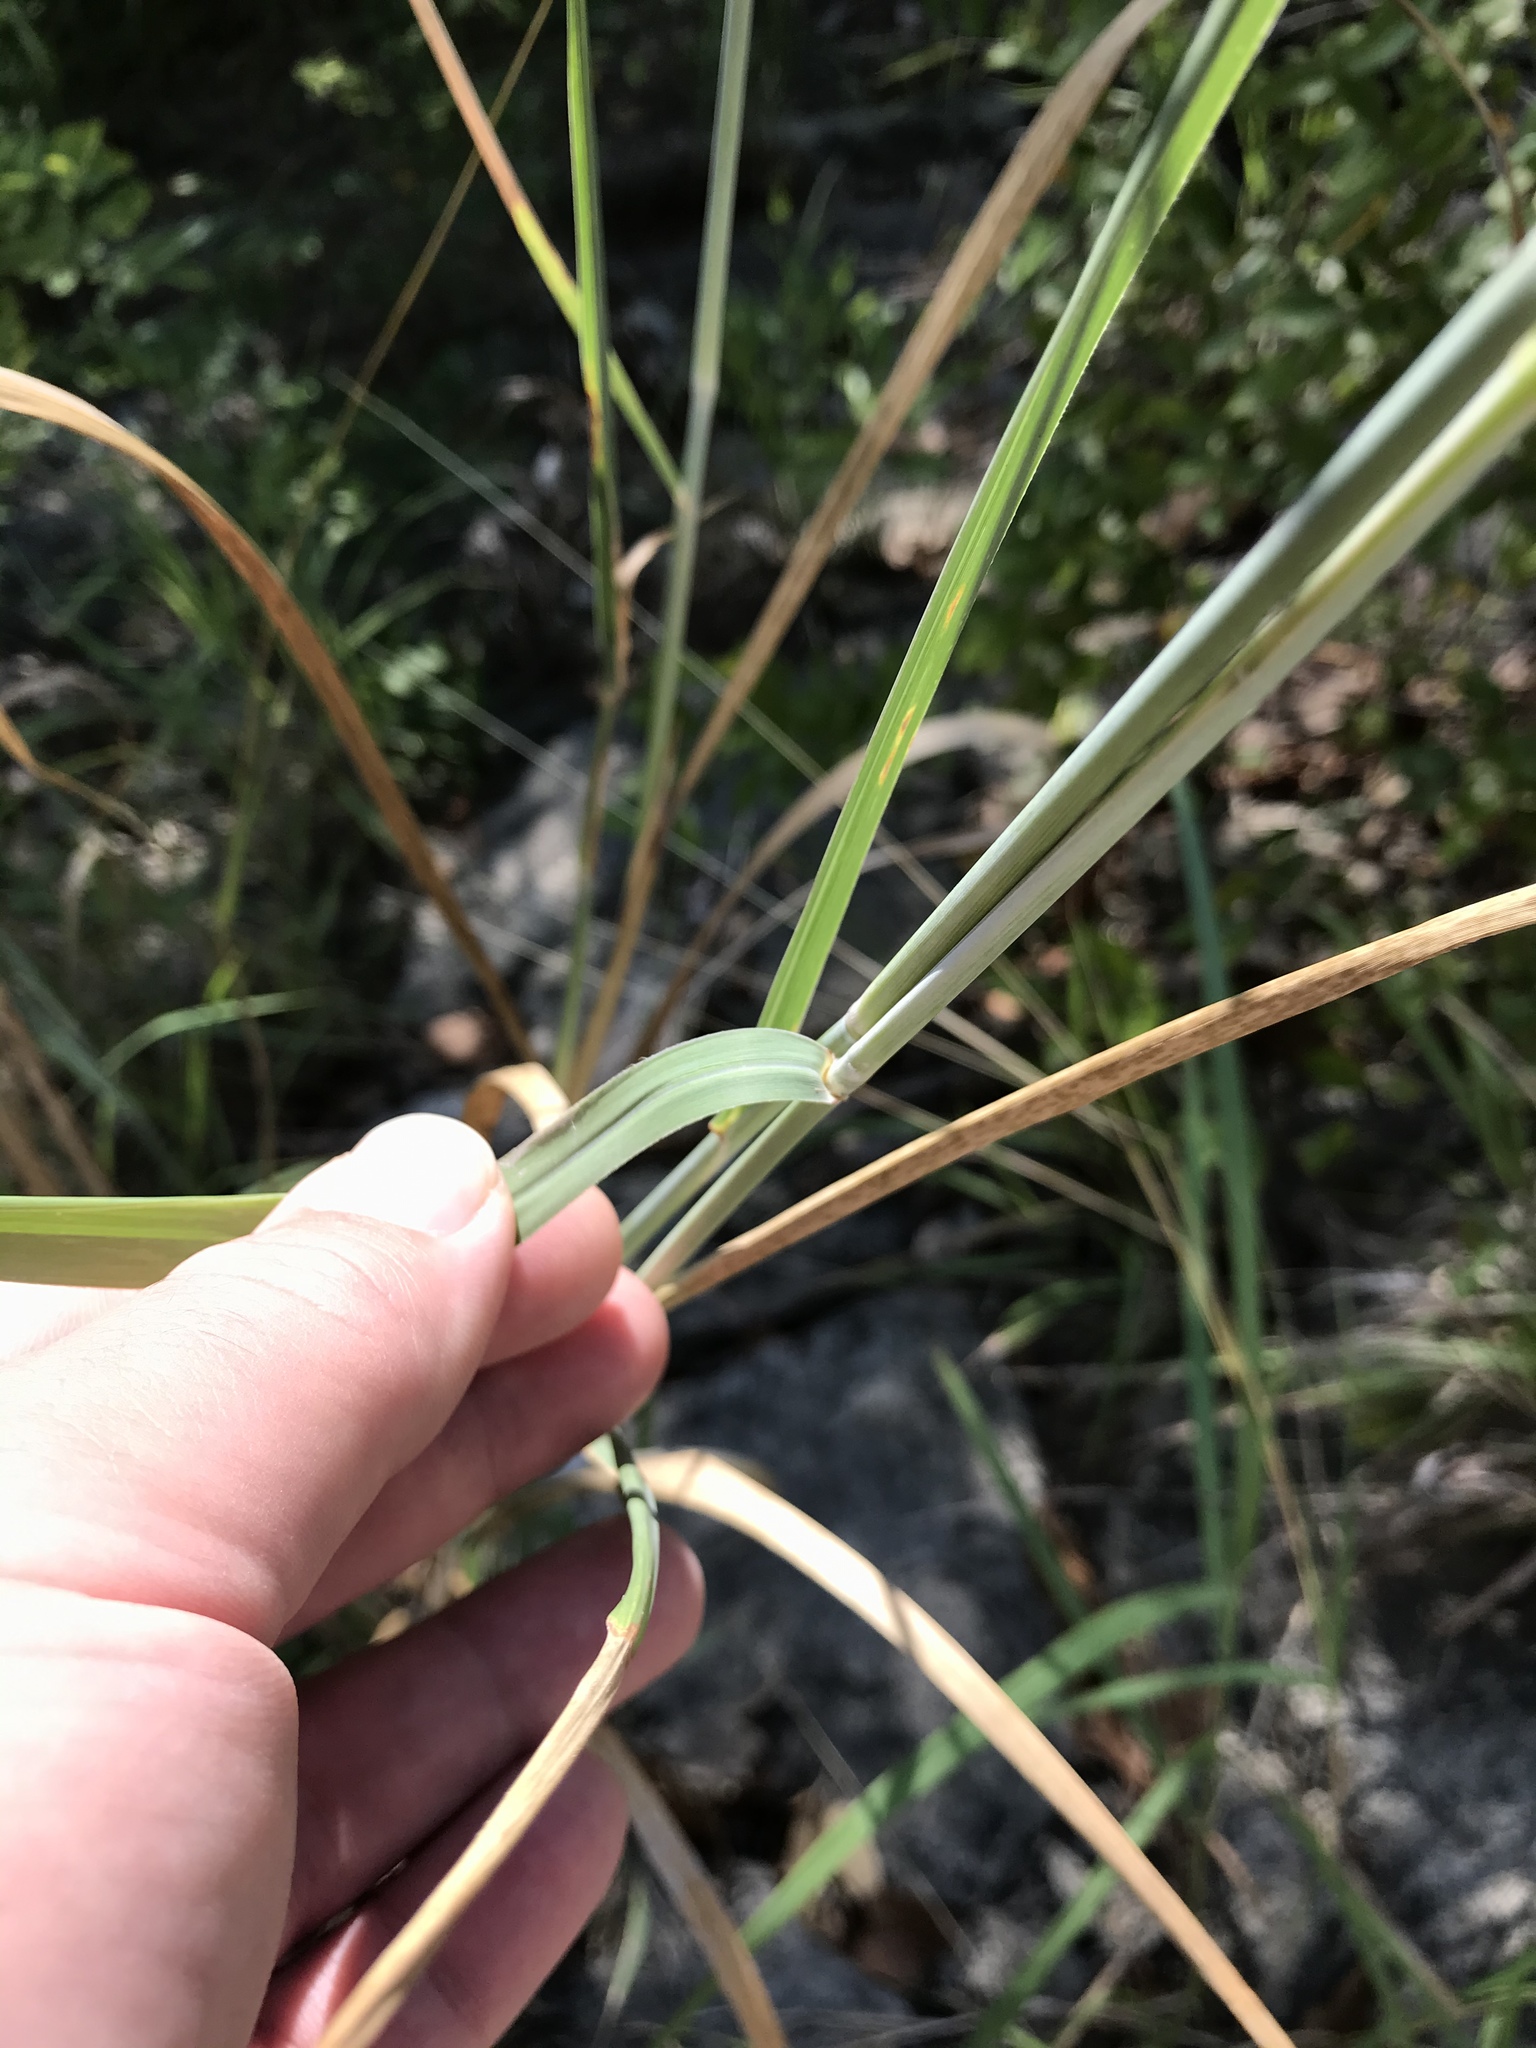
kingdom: Plantae
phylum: Tracheophyta
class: Liliopsida
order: Poales
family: Poaceae
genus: Panicum
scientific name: Panicum virgatum
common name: Switchgrass
